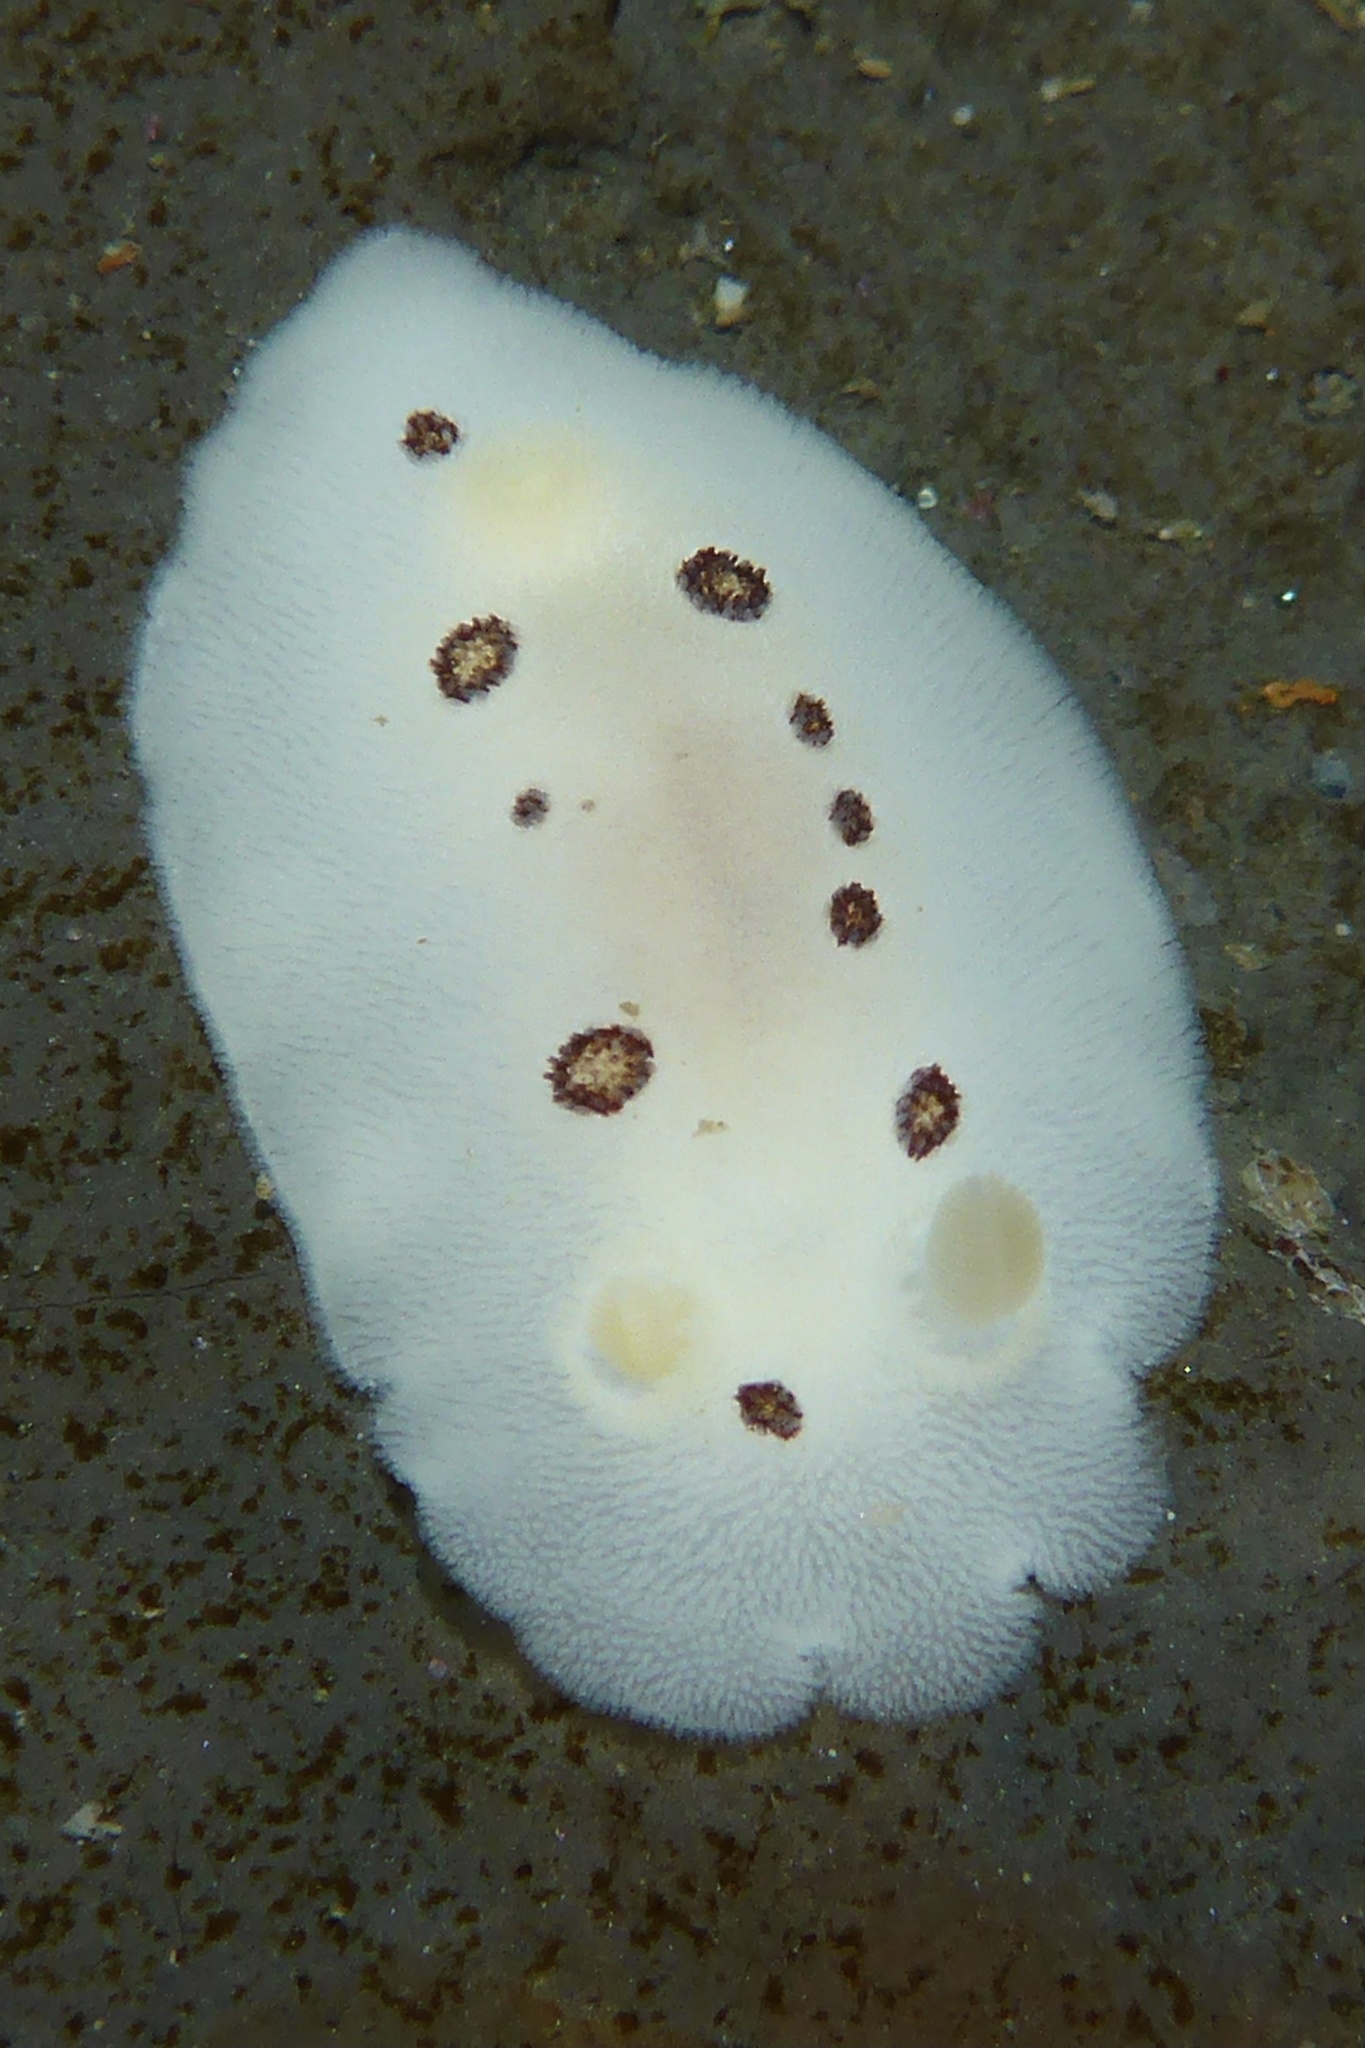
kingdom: Animalia
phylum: Mollusca
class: Gastropoda
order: Nudibranchia
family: Discodorididae
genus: Diaulula
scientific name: Diaulula sandiegensis
